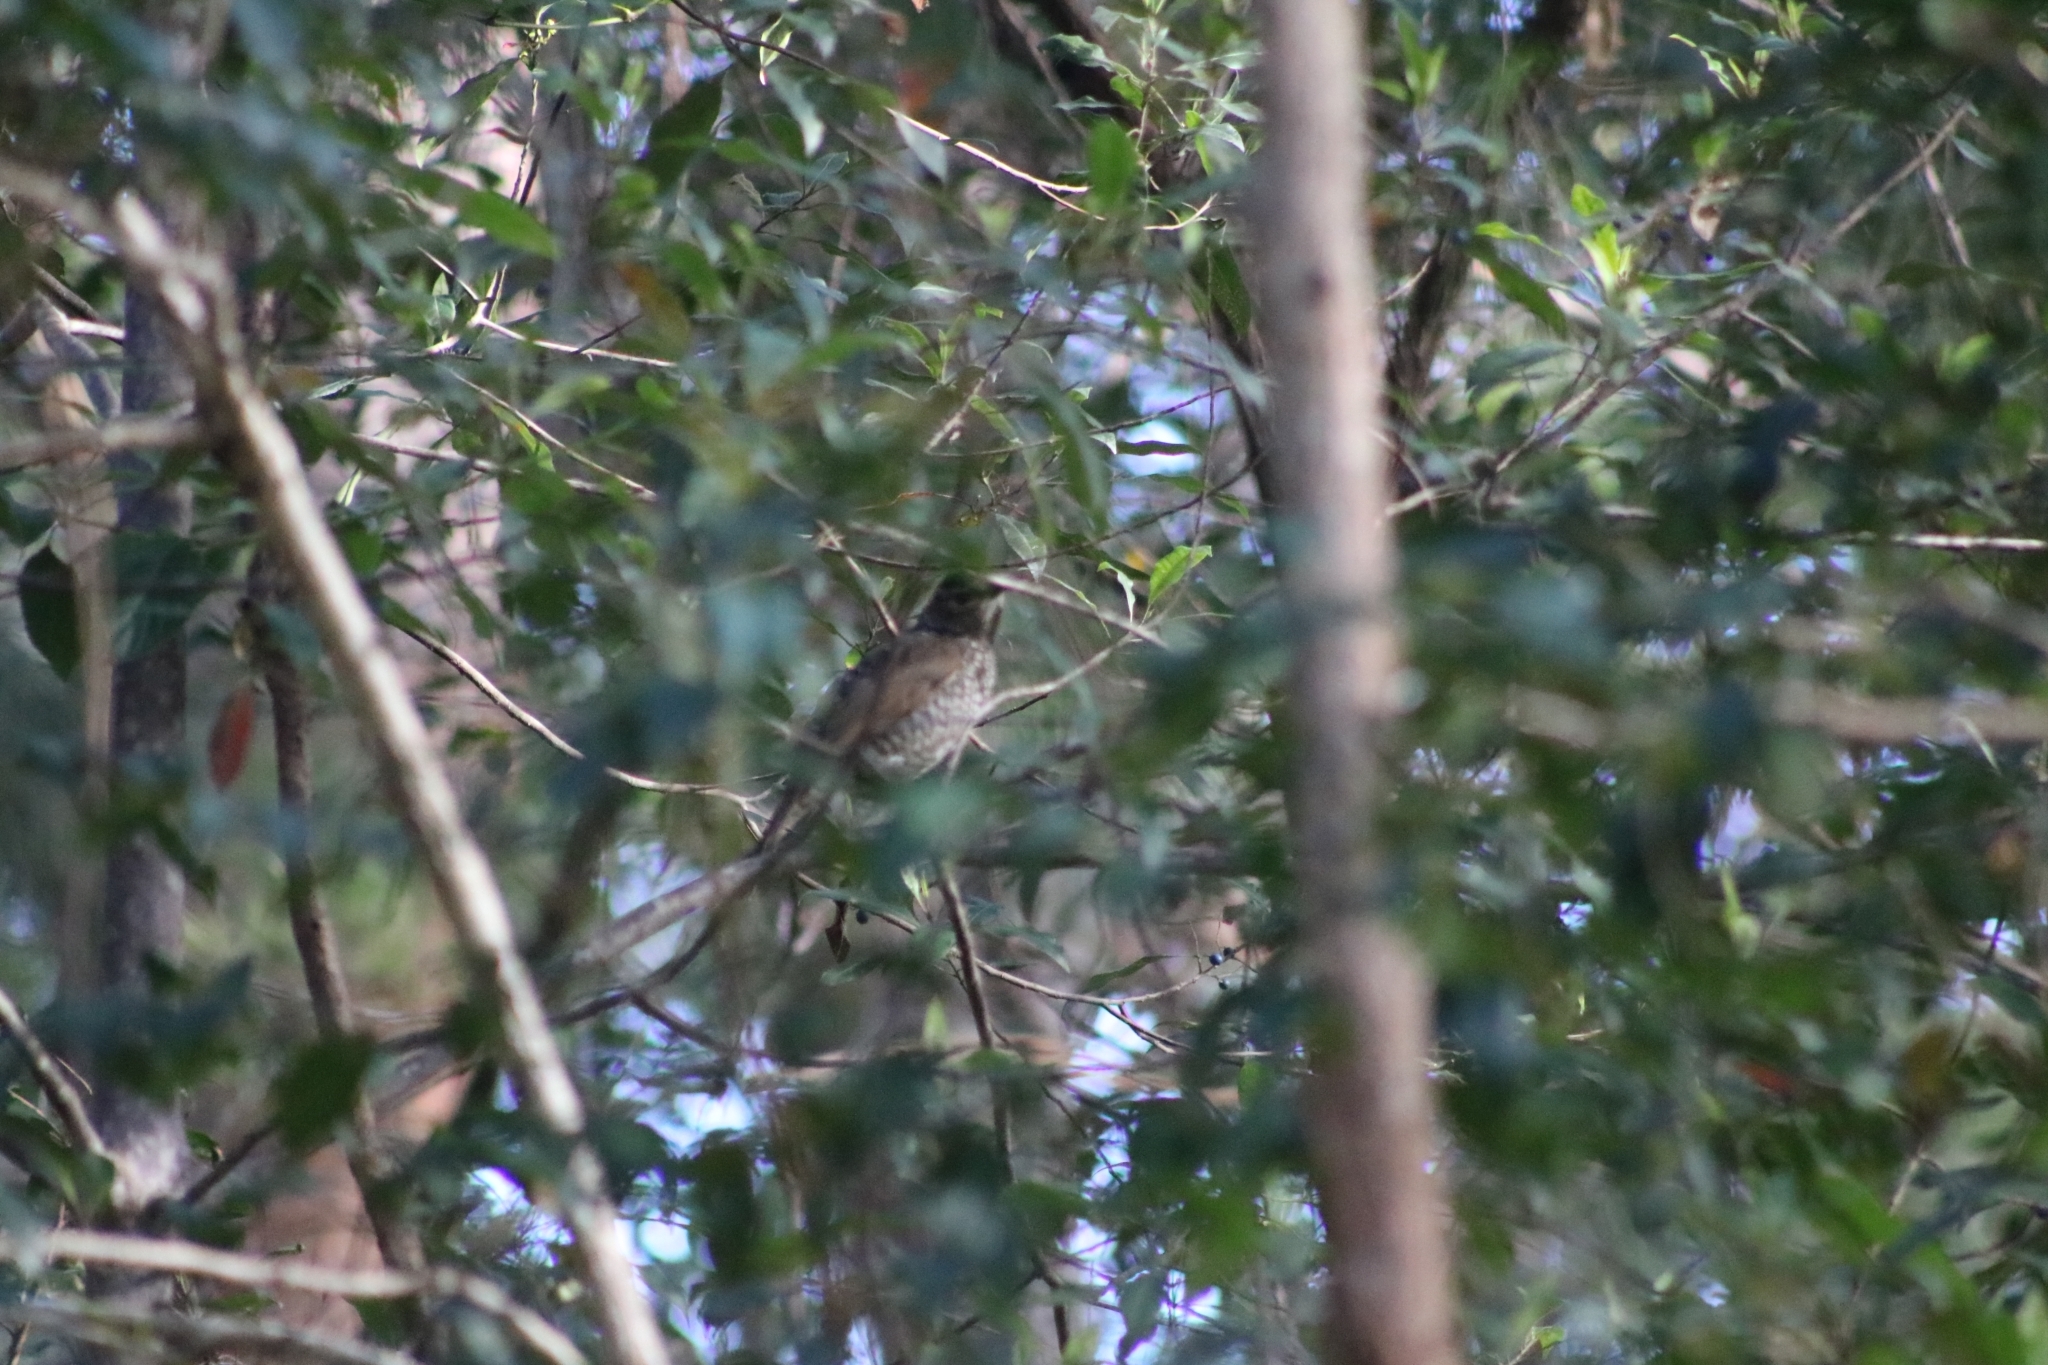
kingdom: Animalia
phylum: Chordata
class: Aves
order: Passeriformes
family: Ptilonorhynchidae
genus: Sericulus
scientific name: Sericulus chrysocephalus
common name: Regent bowerbird
